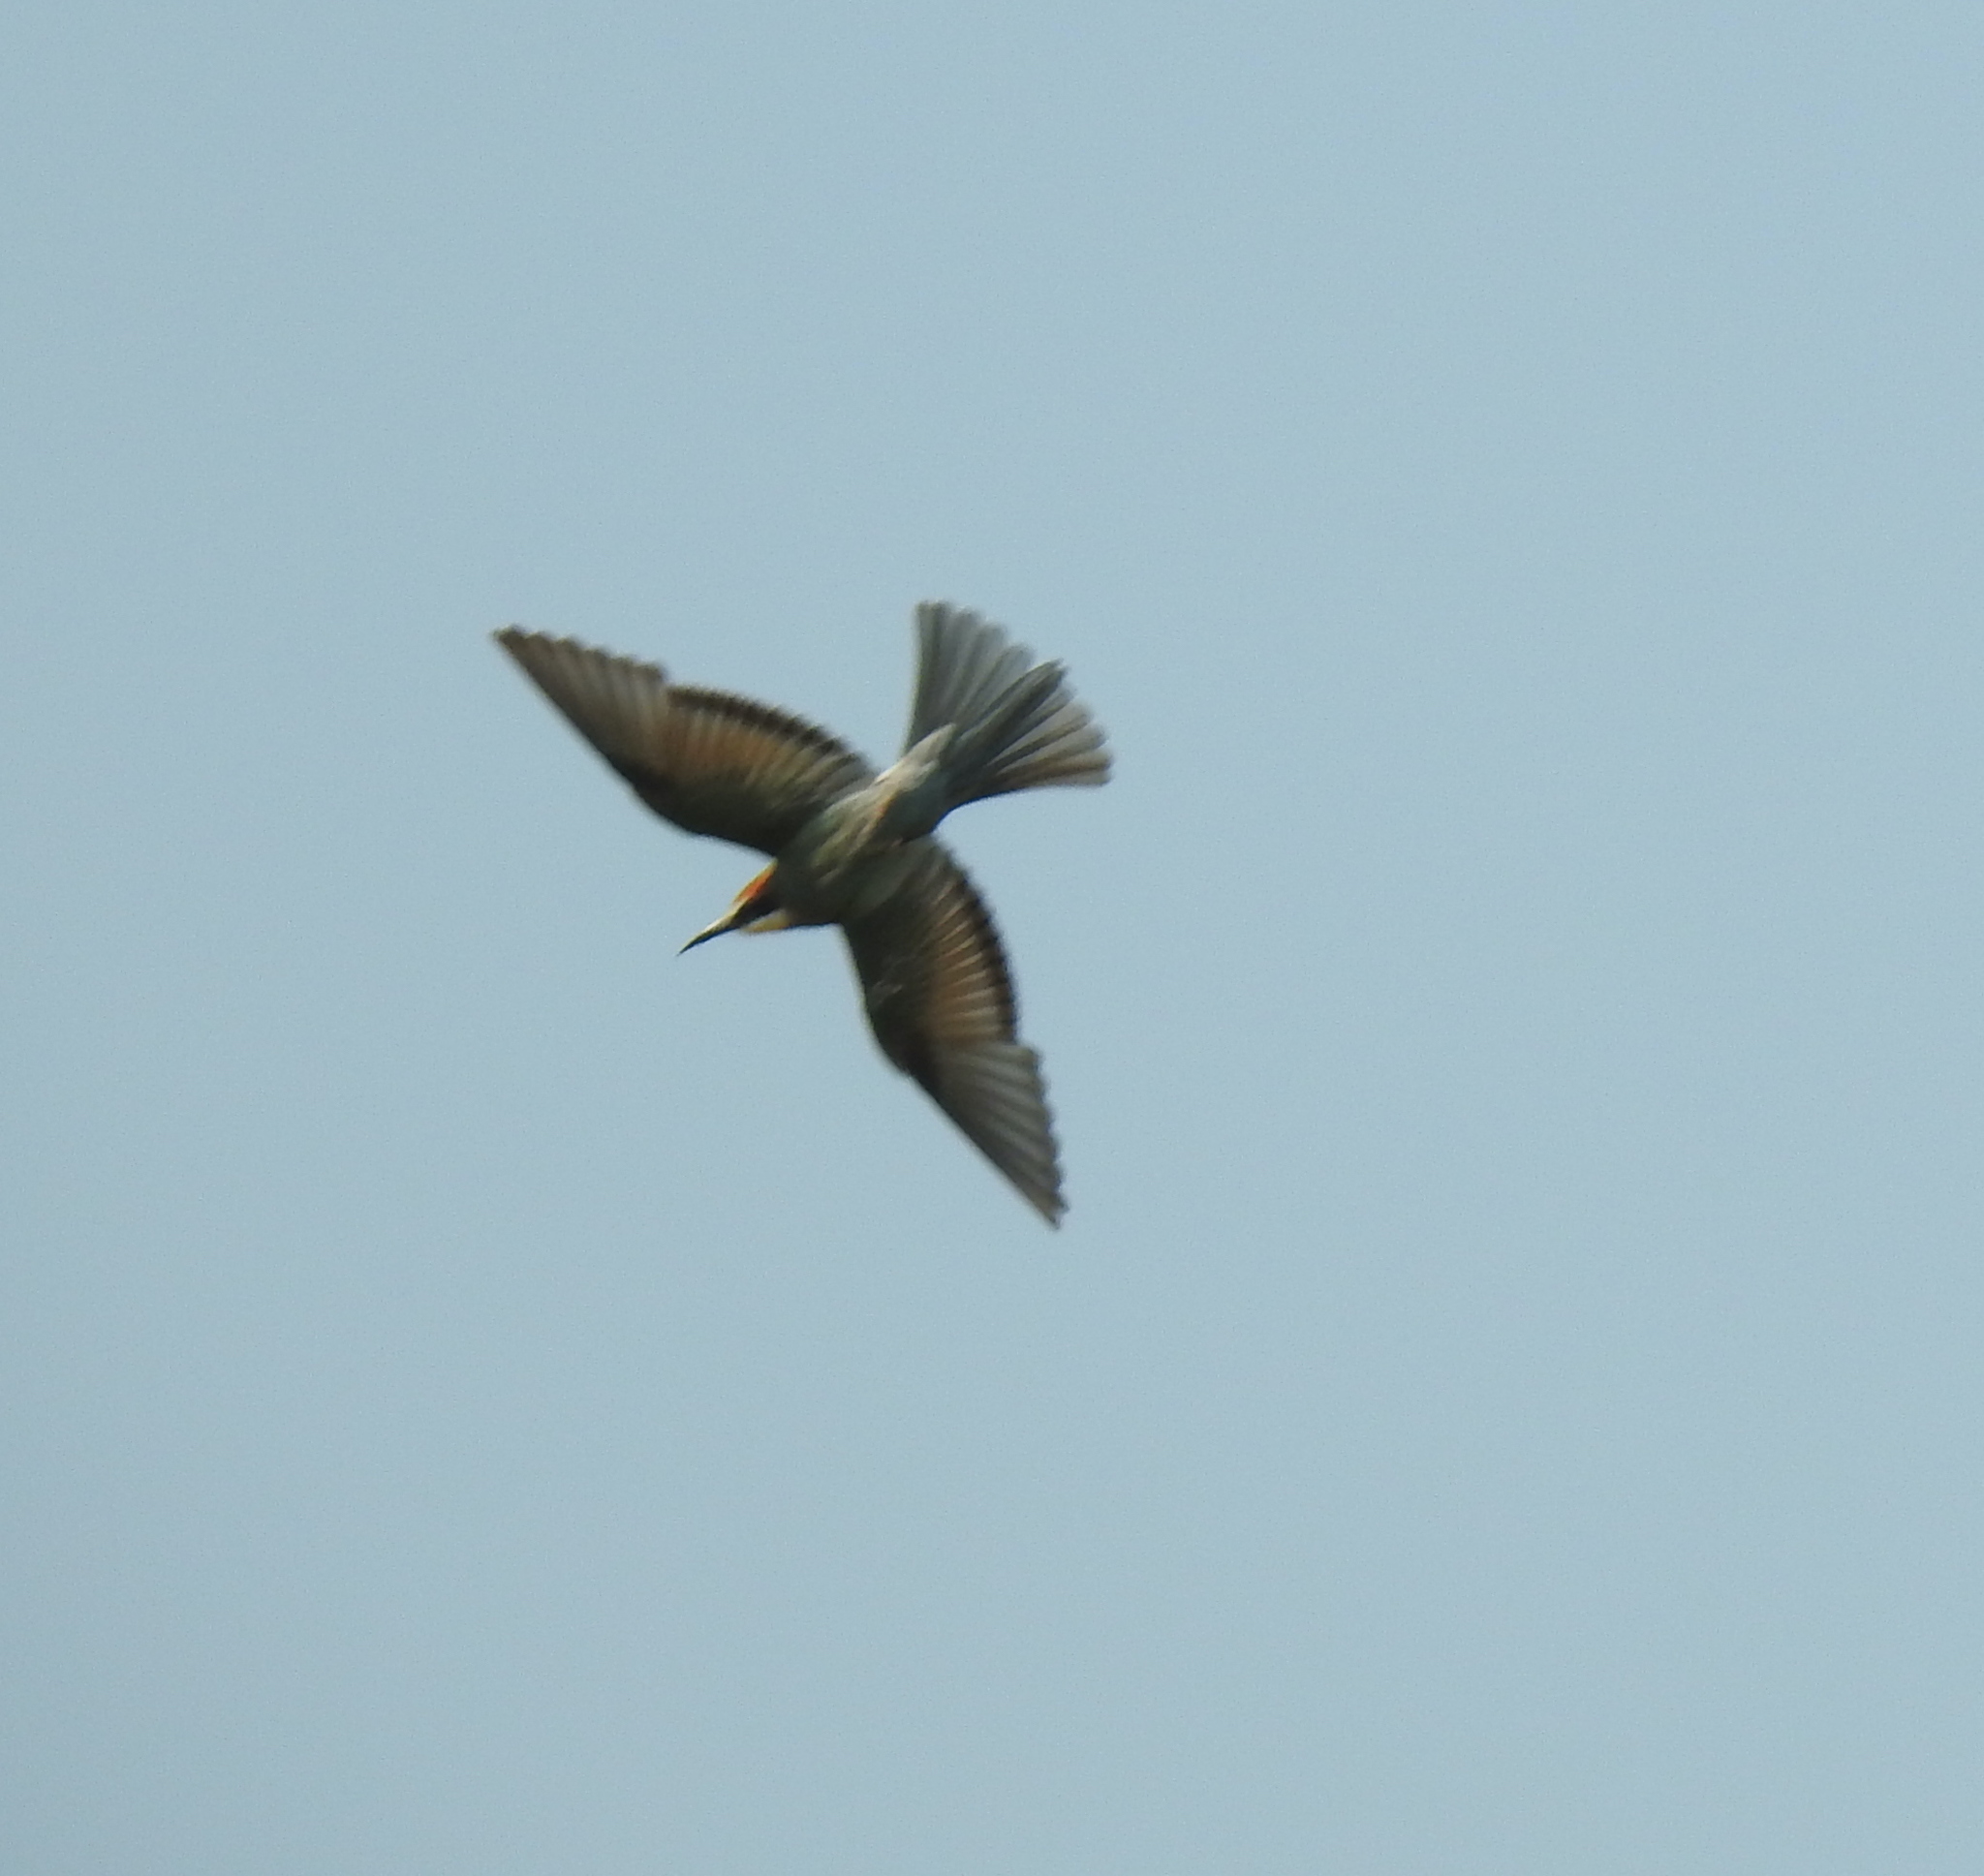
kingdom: Animalia
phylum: Chordata
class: Aves
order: Coraciiformes
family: Meropidae
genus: Merops
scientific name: Merops apiaster
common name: European bee-eater
